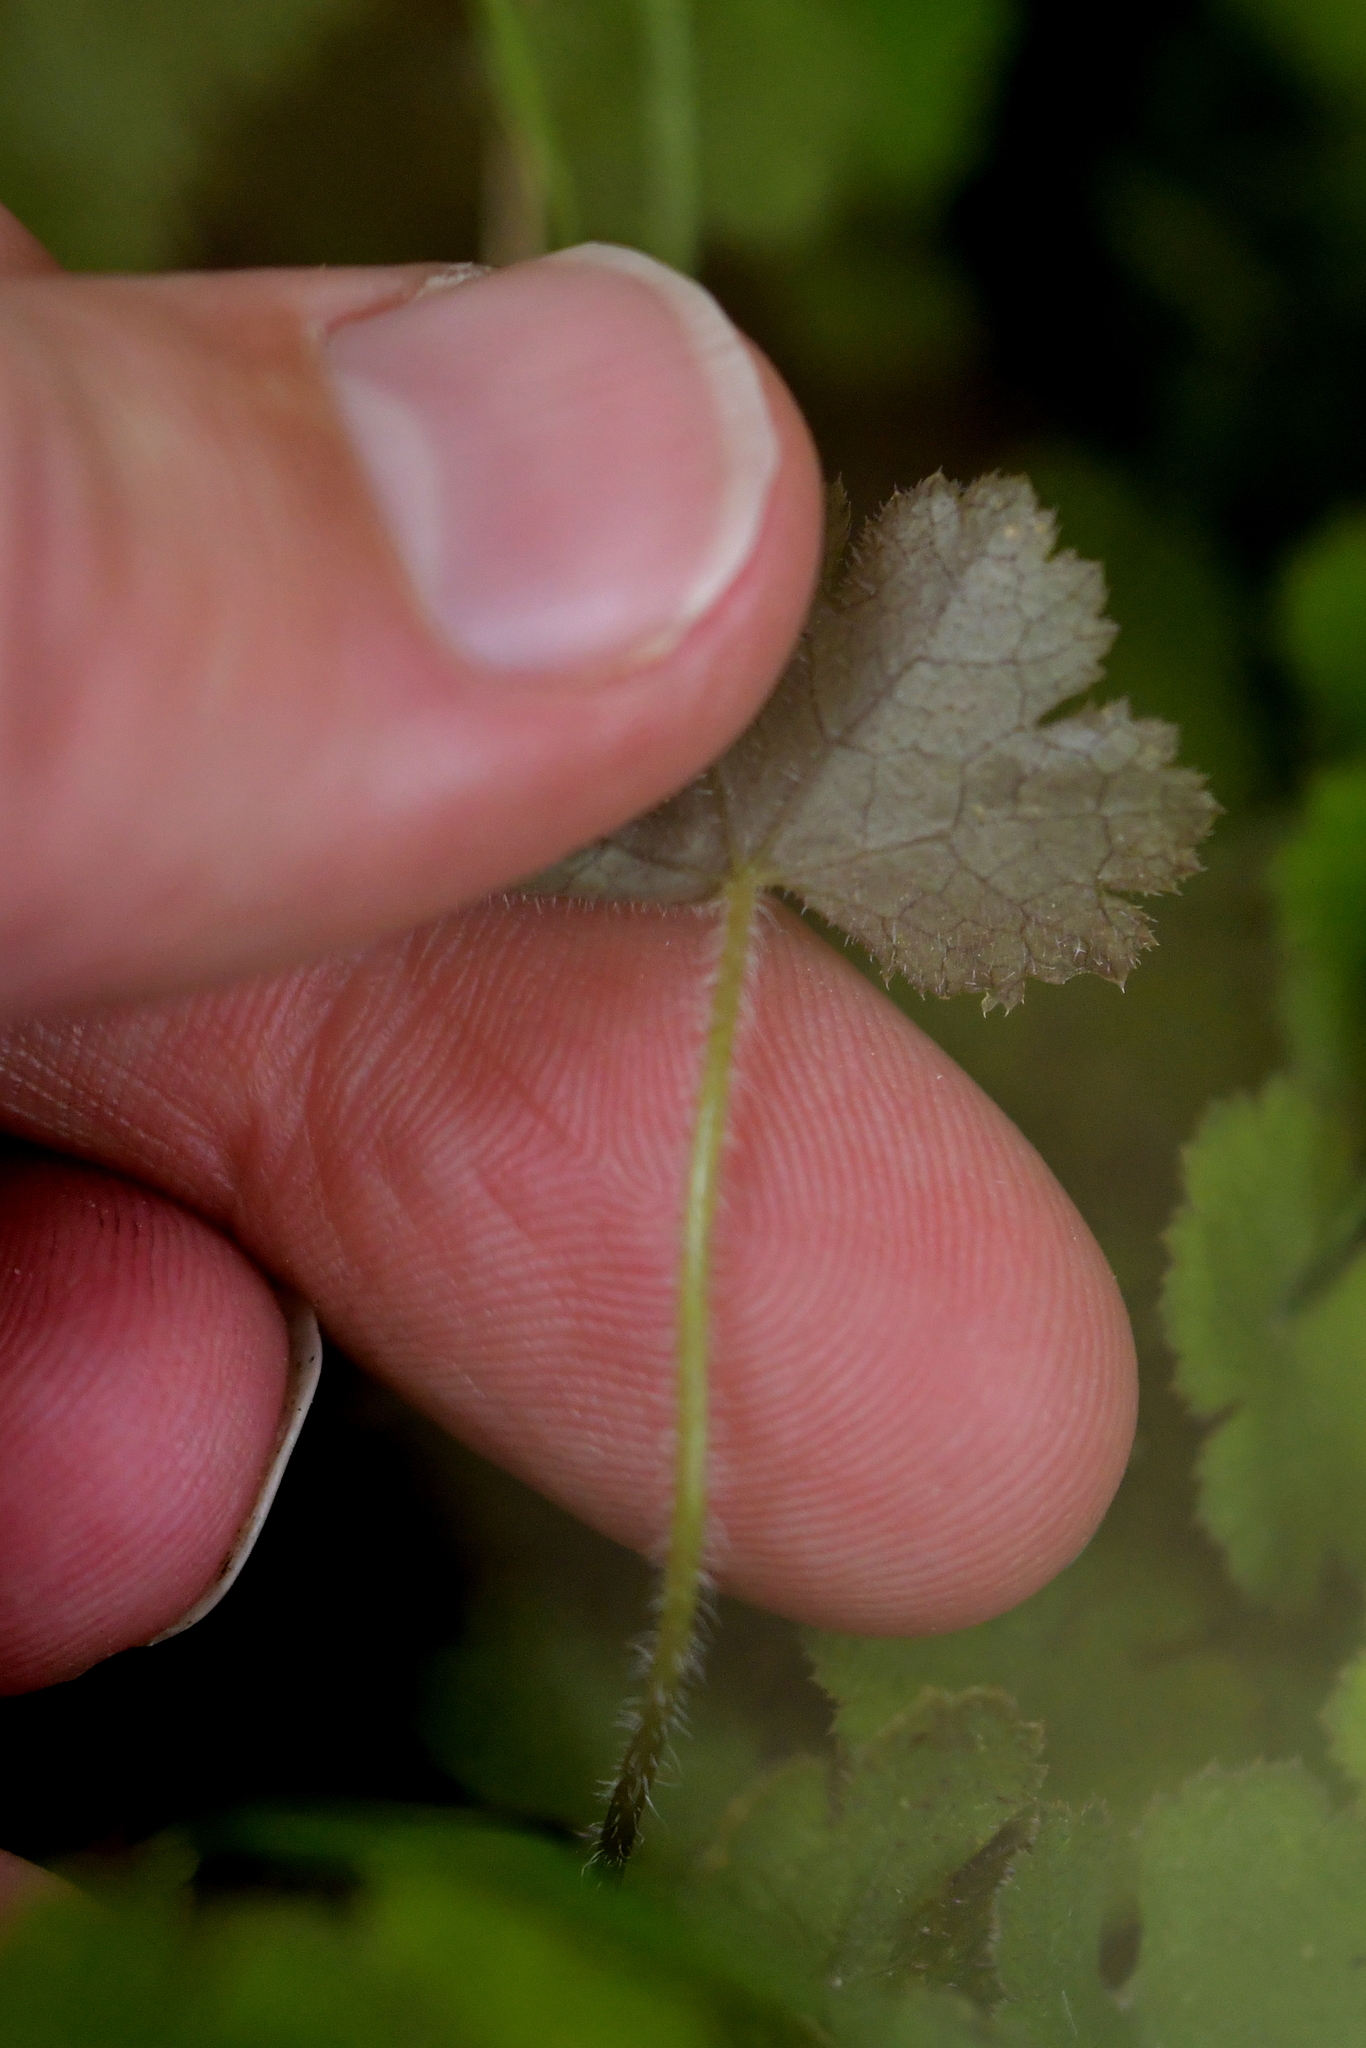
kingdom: Plantae
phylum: Tracheophyta
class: Magnoliopsida
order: Apiales
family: Araliaceae
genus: Hydrocotyle
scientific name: Hydrocotyle elongata
